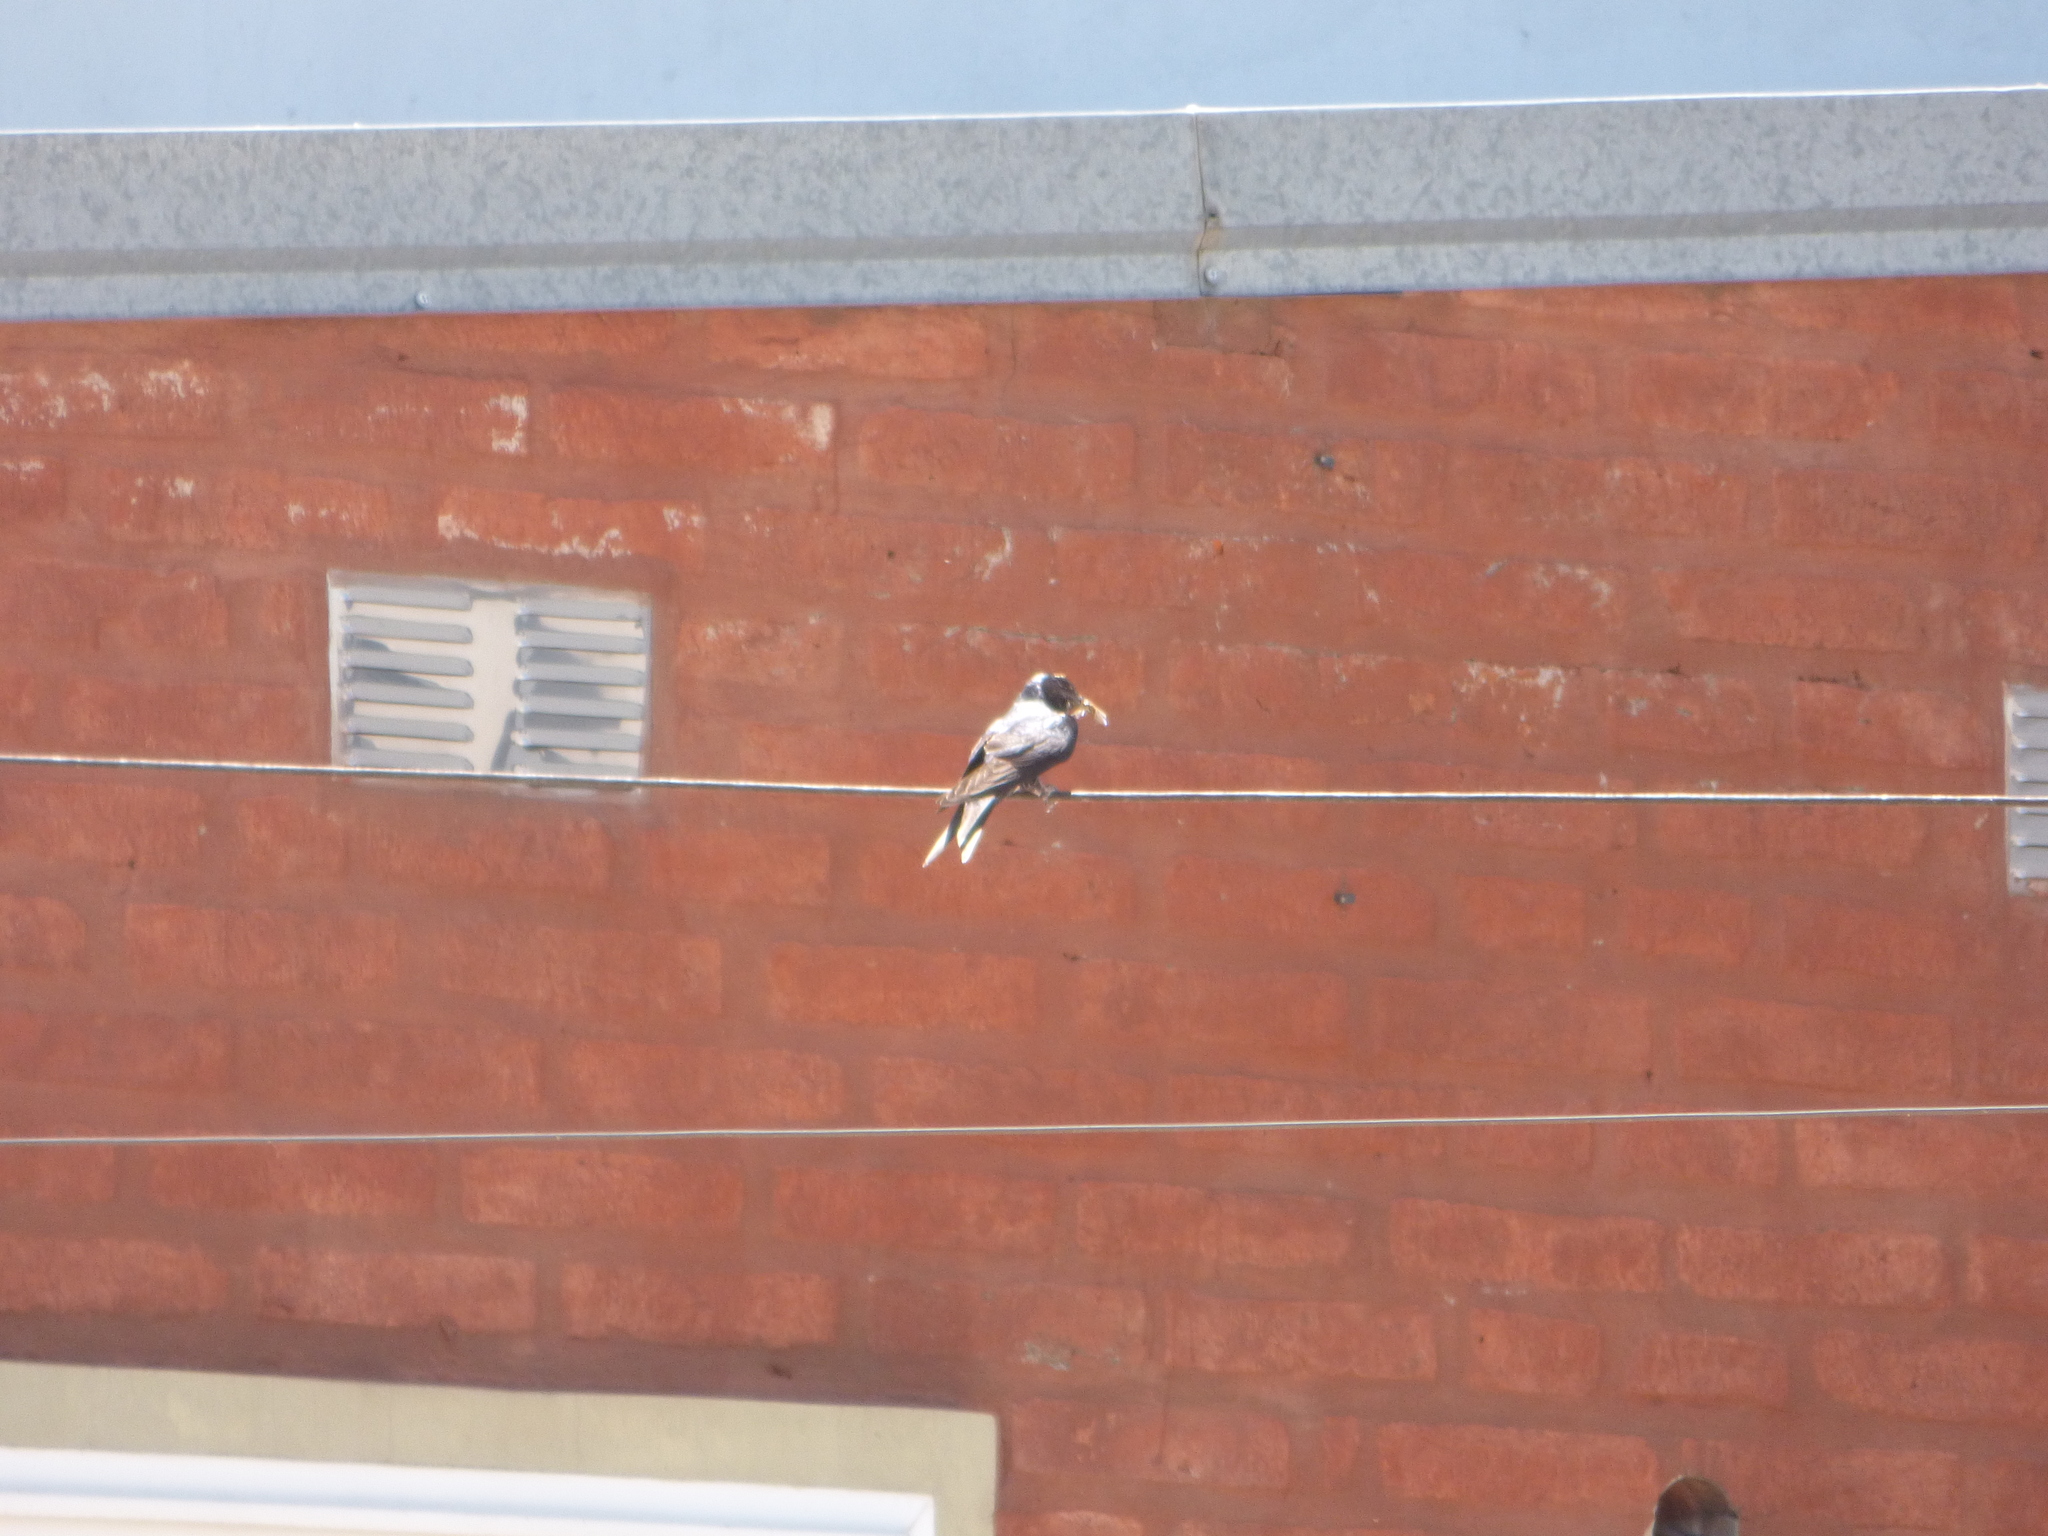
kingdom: Animalia
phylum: Chordata
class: Aves
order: Passeriformes
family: Hirundinidae
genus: Progne
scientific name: Progne chalybea
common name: Grey-breasted martin
